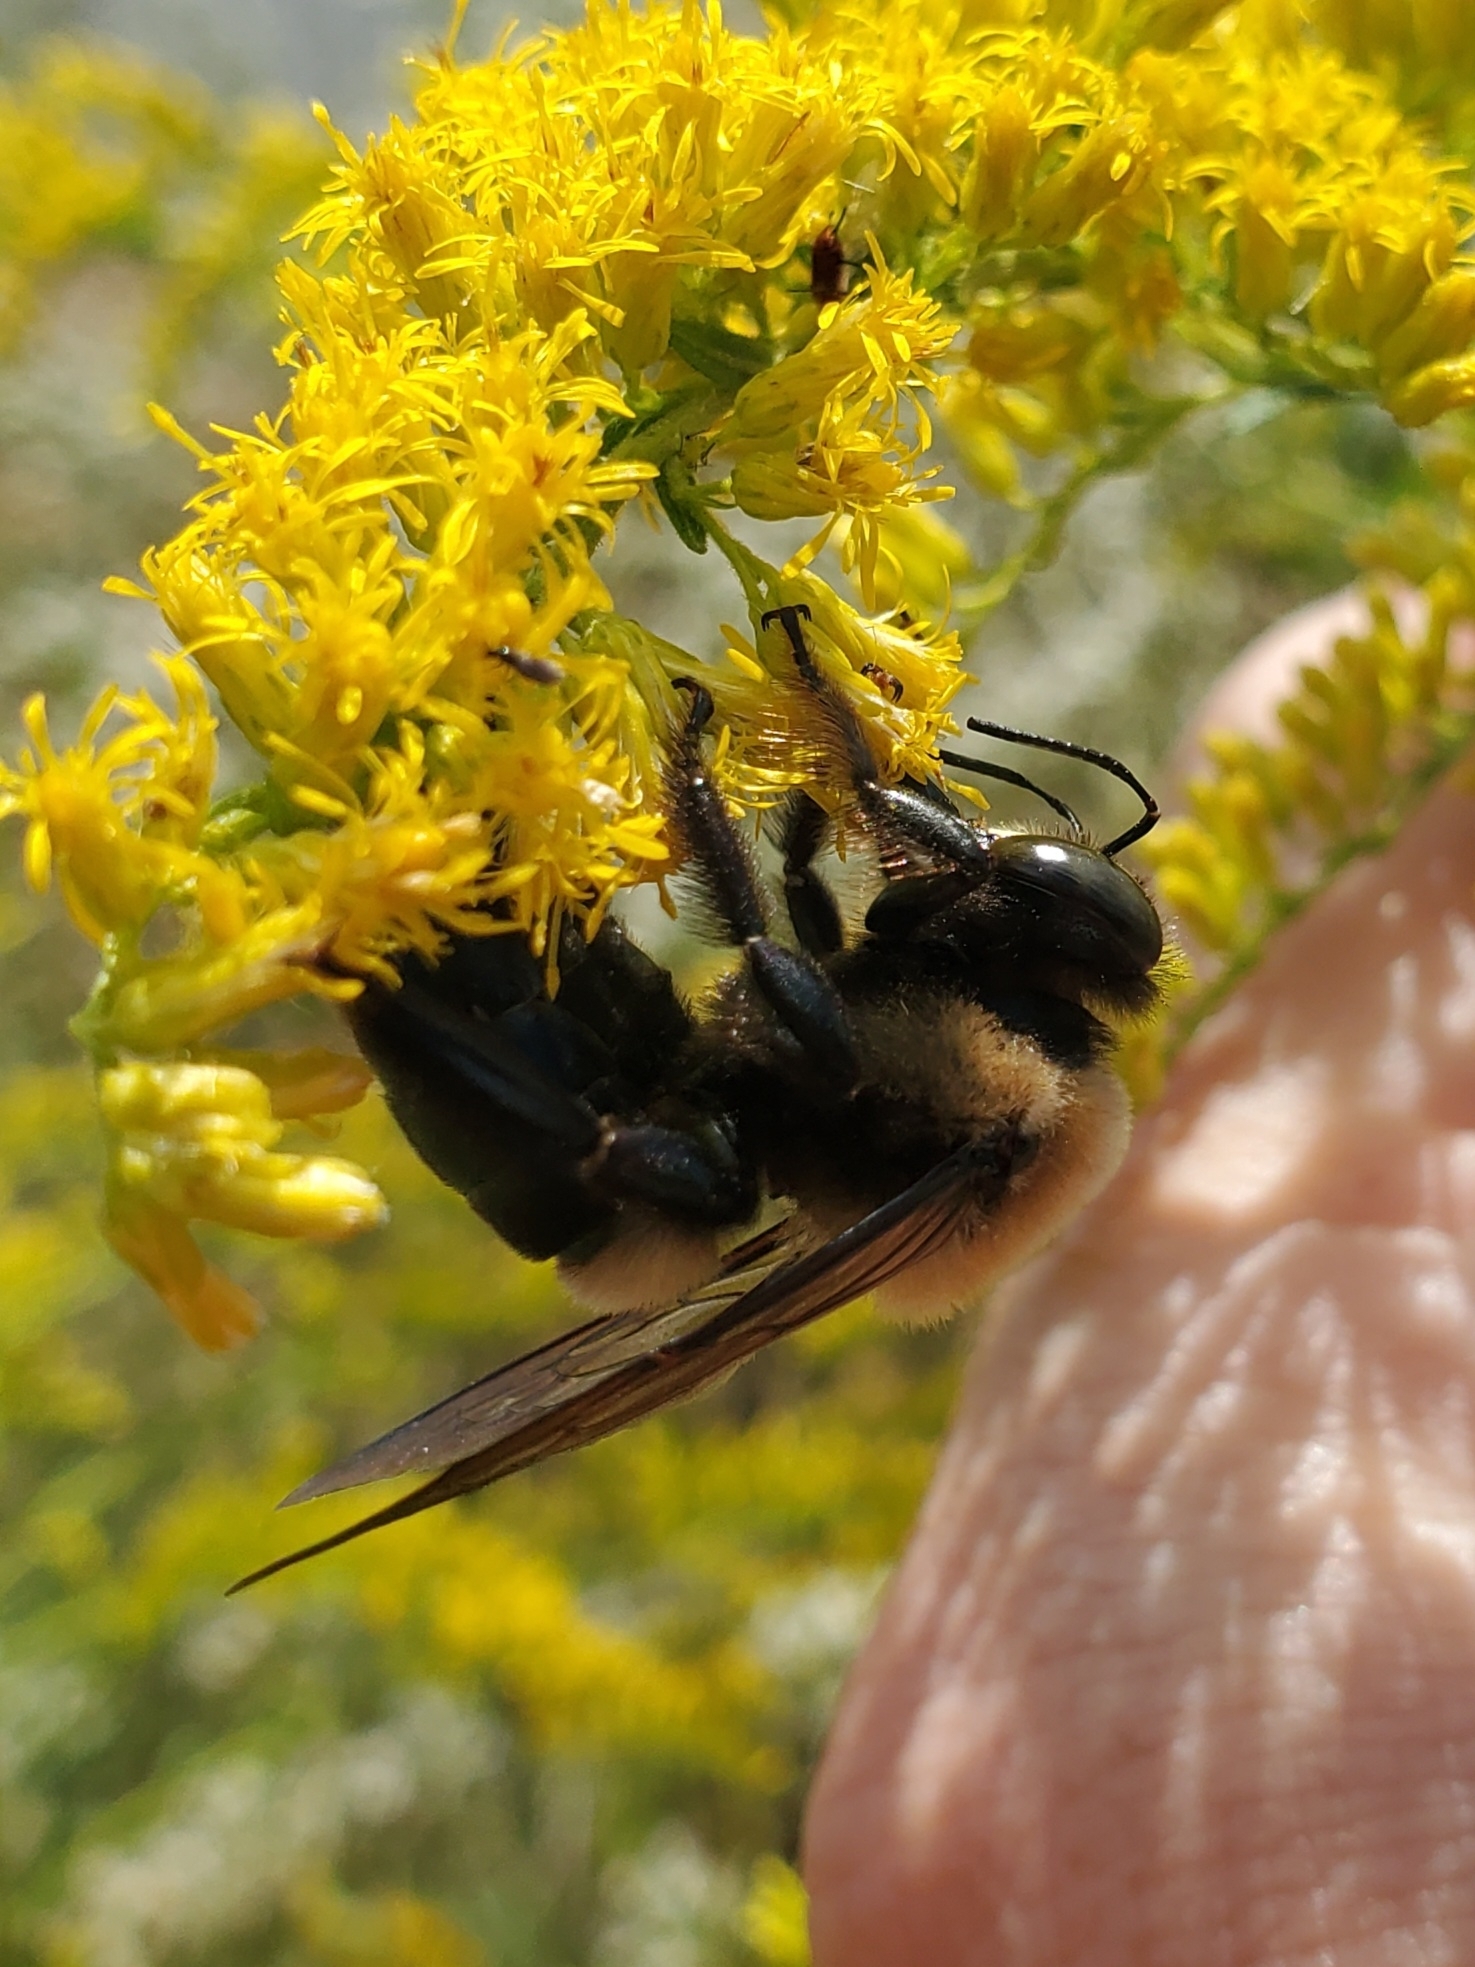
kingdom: Animalia
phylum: Arthropoda
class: Insecta
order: Hymenoptera
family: Apidae
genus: Xylocopa
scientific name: Xylocopa virginica
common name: Carpenter bee
